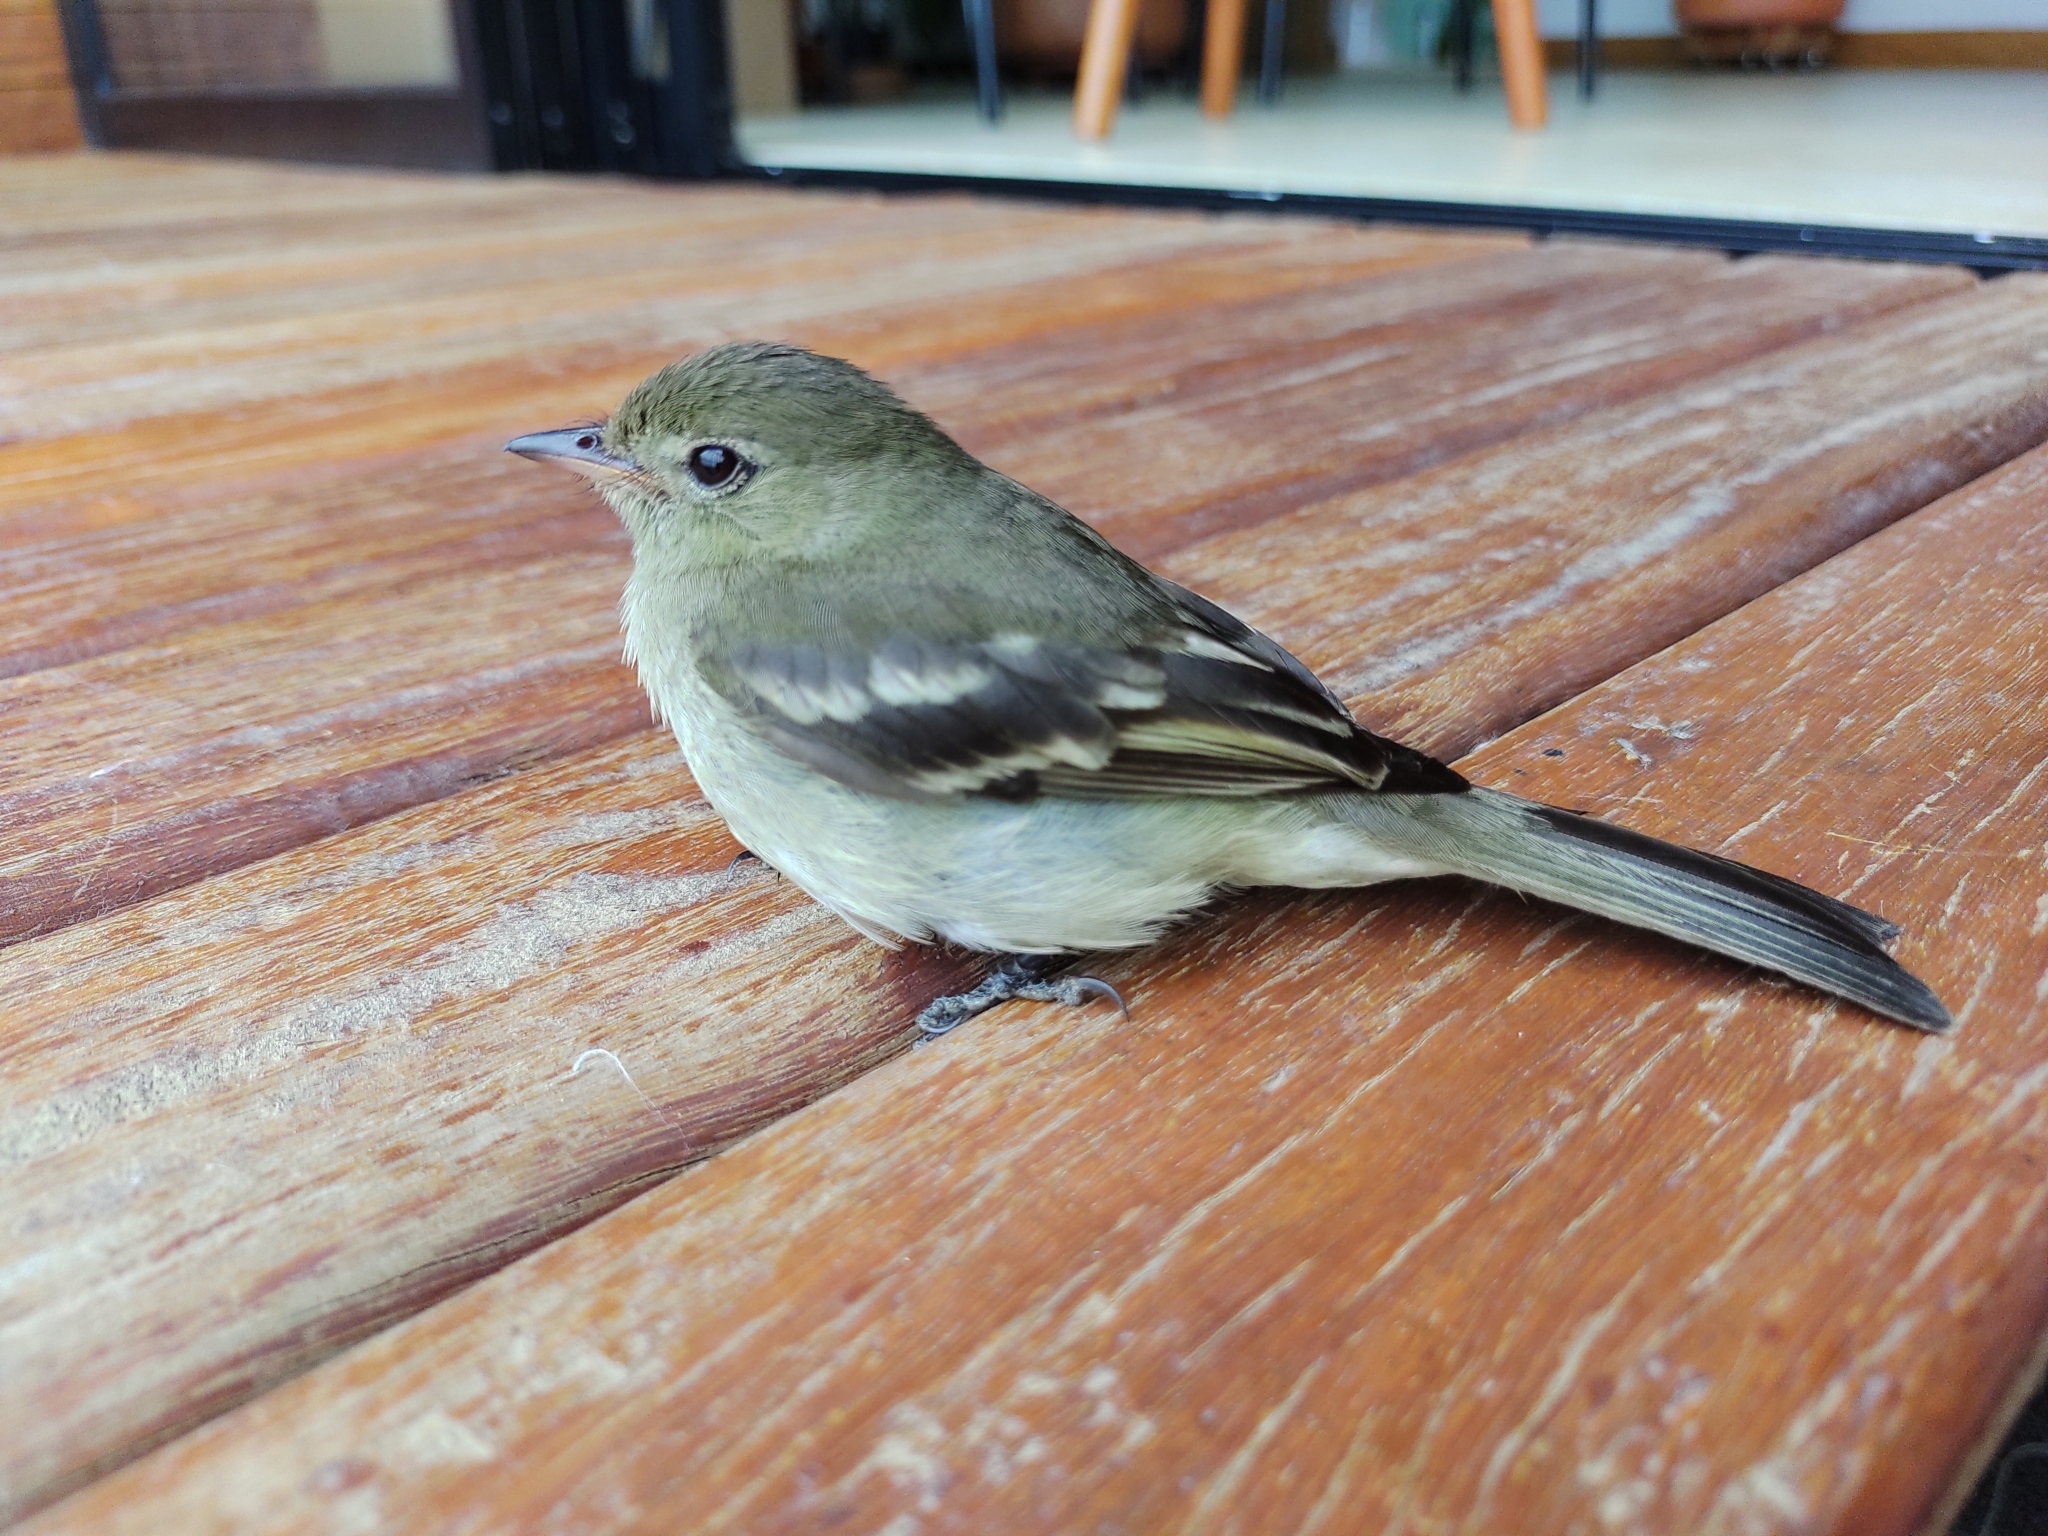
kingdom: Animalia
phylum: Chordata
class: Aves
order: Passeriformes
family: Tyrannidae
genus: Elaenia
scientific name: Elaenia frantzii
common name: Mountain elaenia
